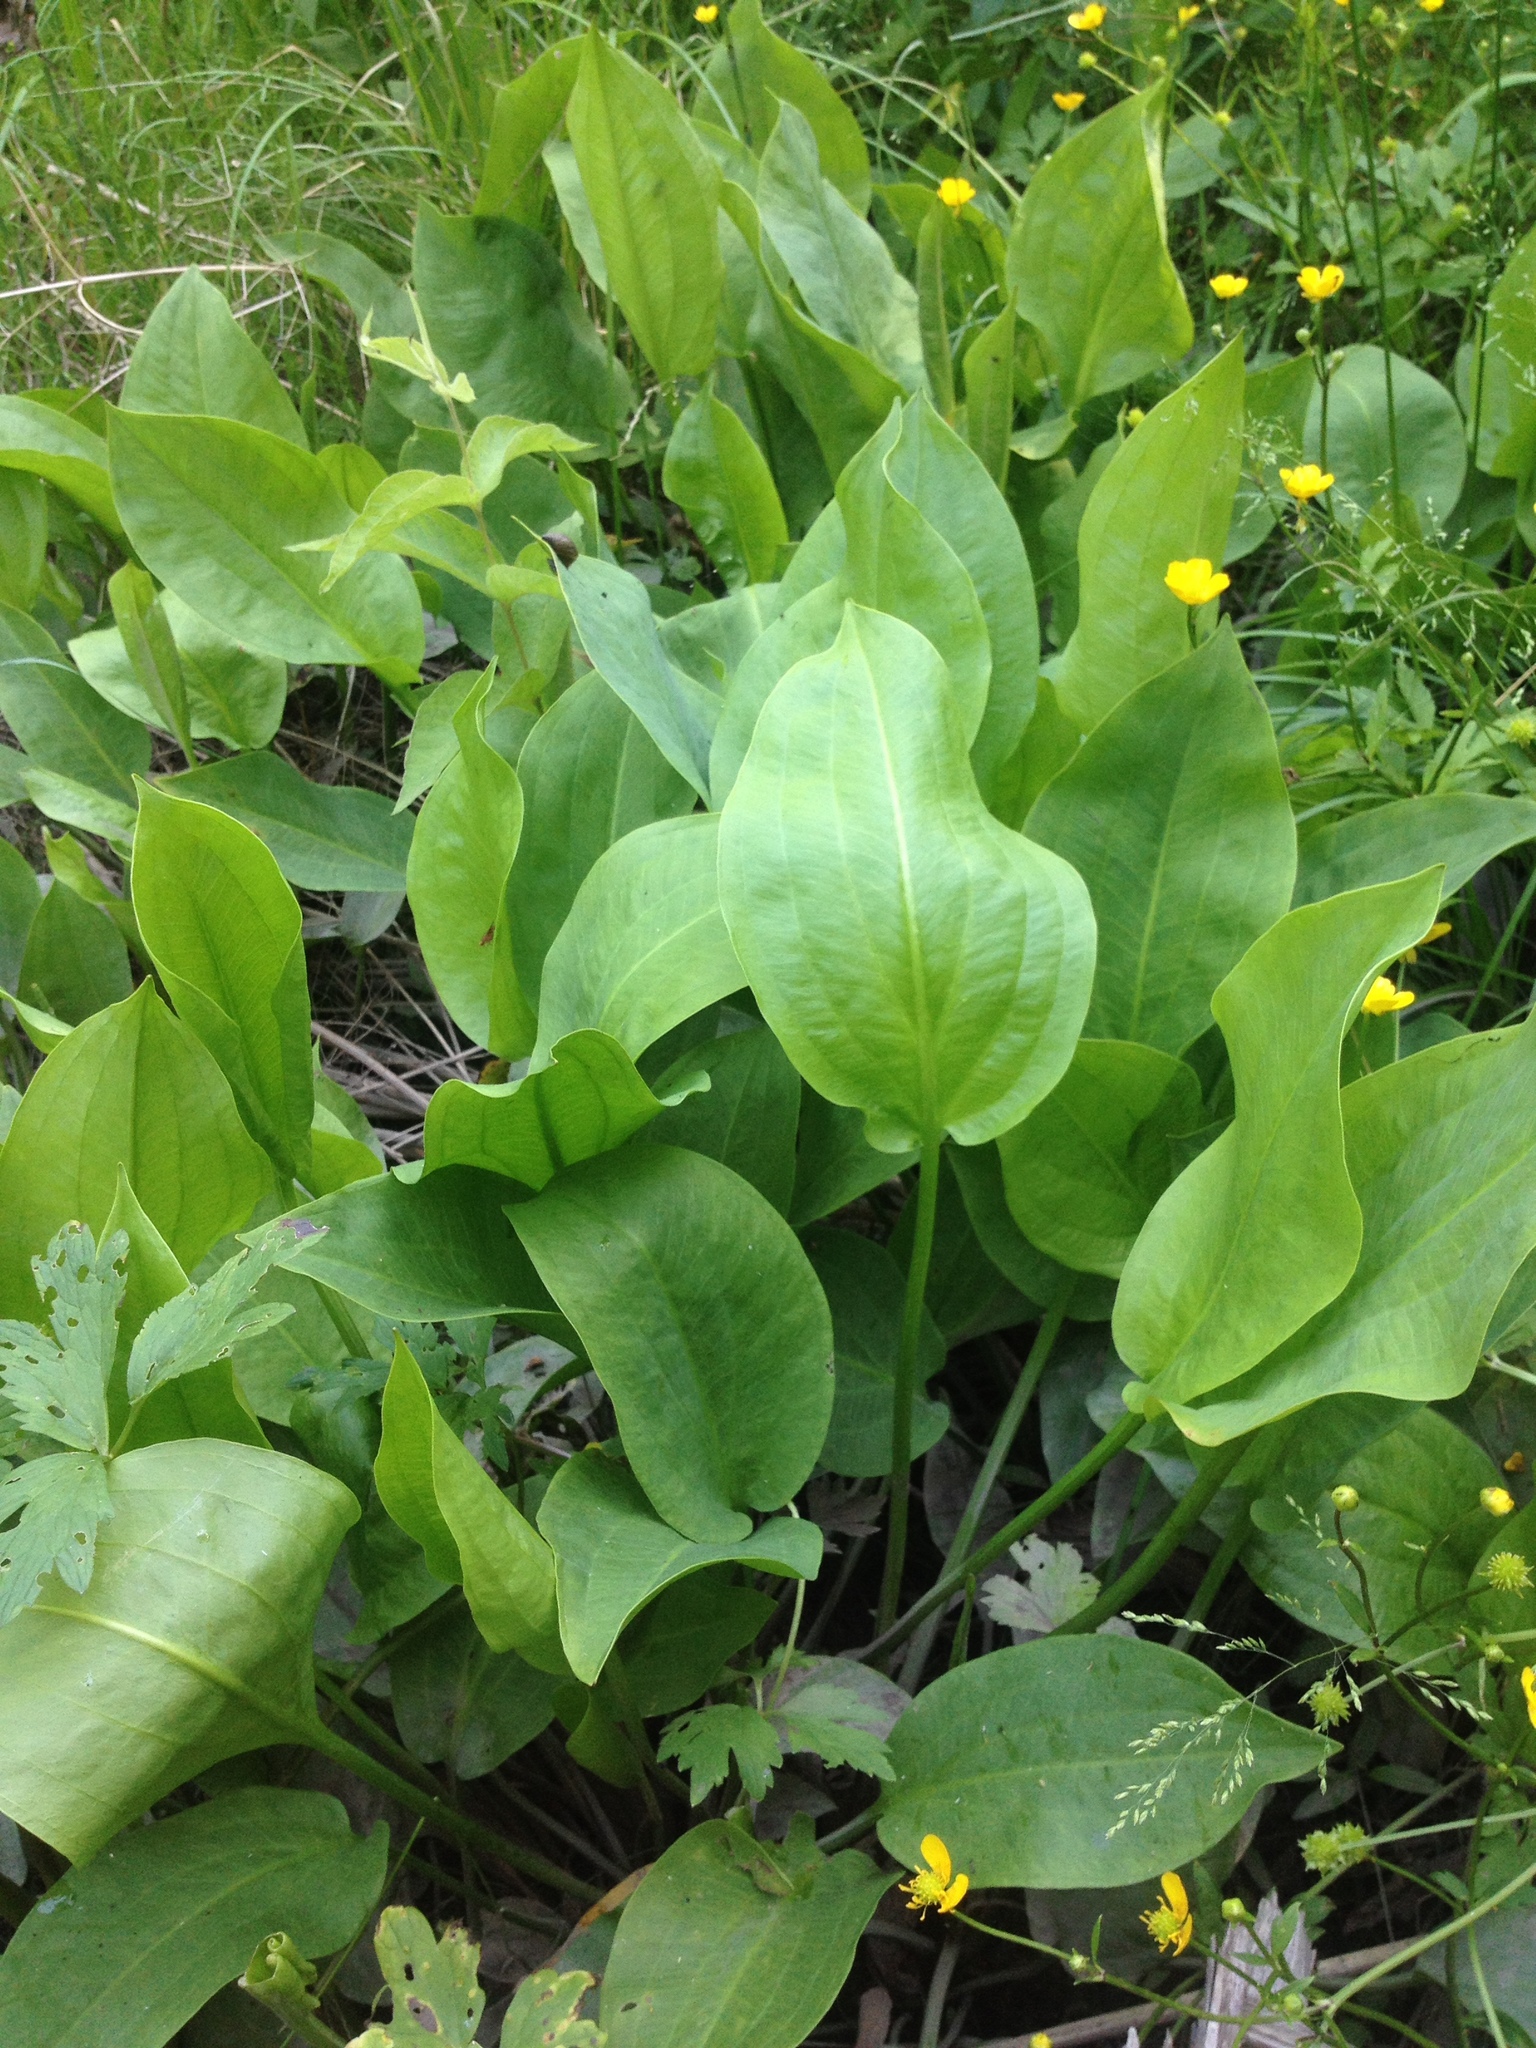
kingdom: Plantae
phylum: Tracheophyta
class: Liliopsida
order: Alismatales
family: Alismataceae
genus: Alisma
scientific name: Alisma plantago-aquatica
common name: Water-plantain
